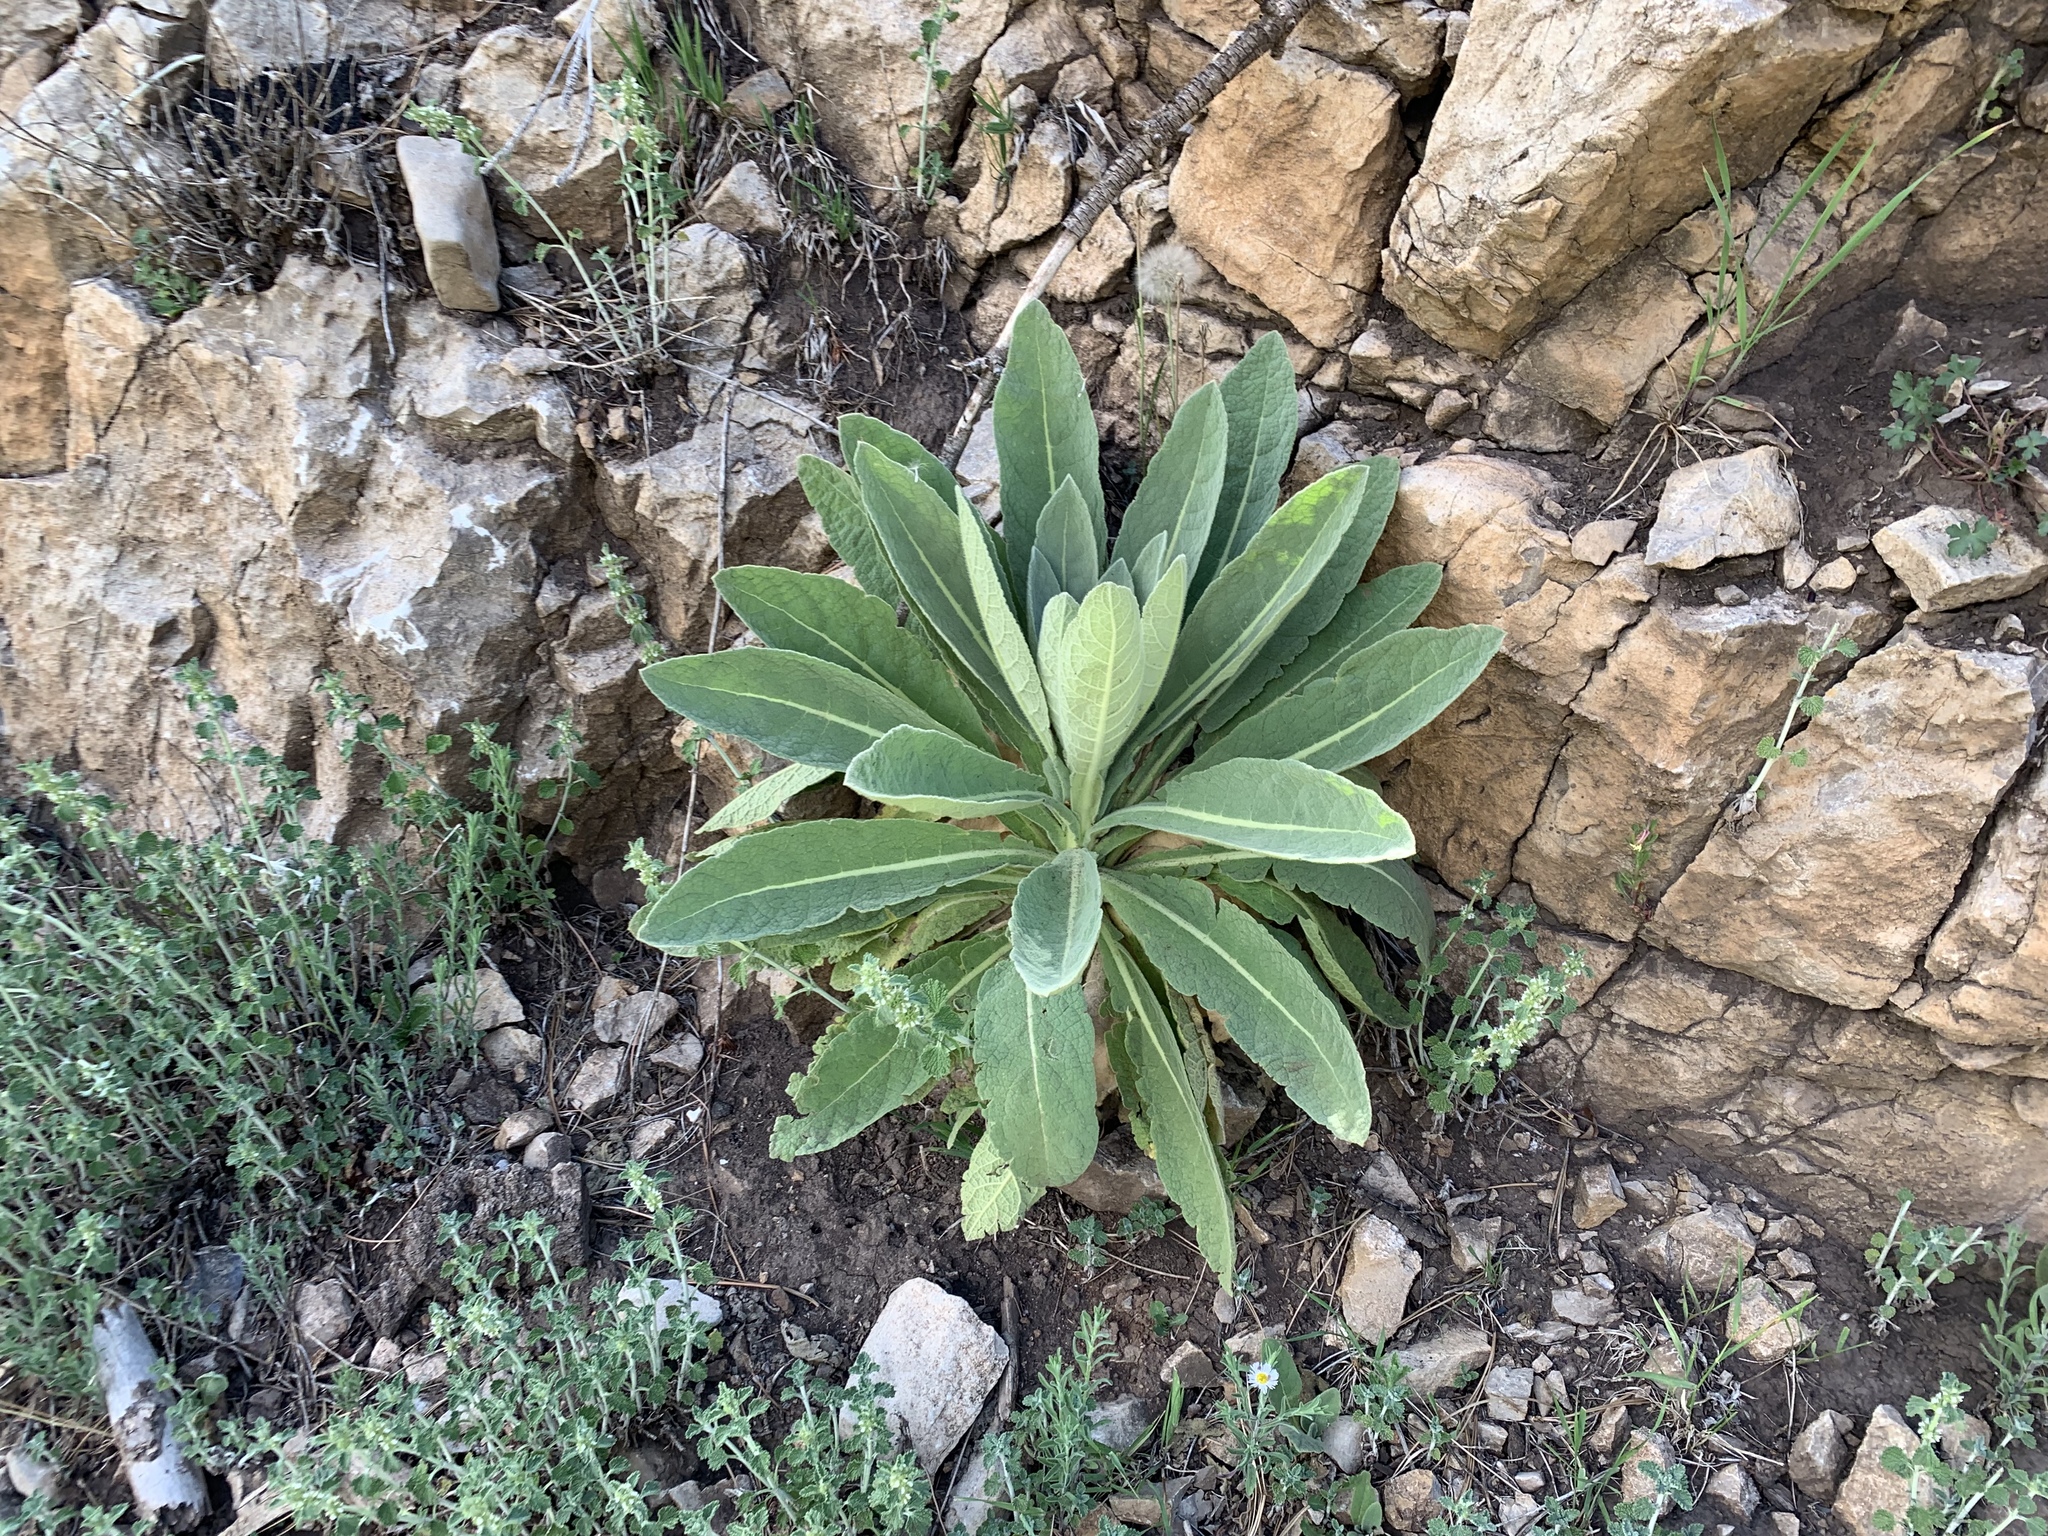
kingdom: Plantae
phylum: Tracheophyta
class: Magnoliopsida
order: Lamiales
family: Scrophulariaceae
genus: Verbascum
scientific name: Verbascum thapsus
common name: Common mullein
